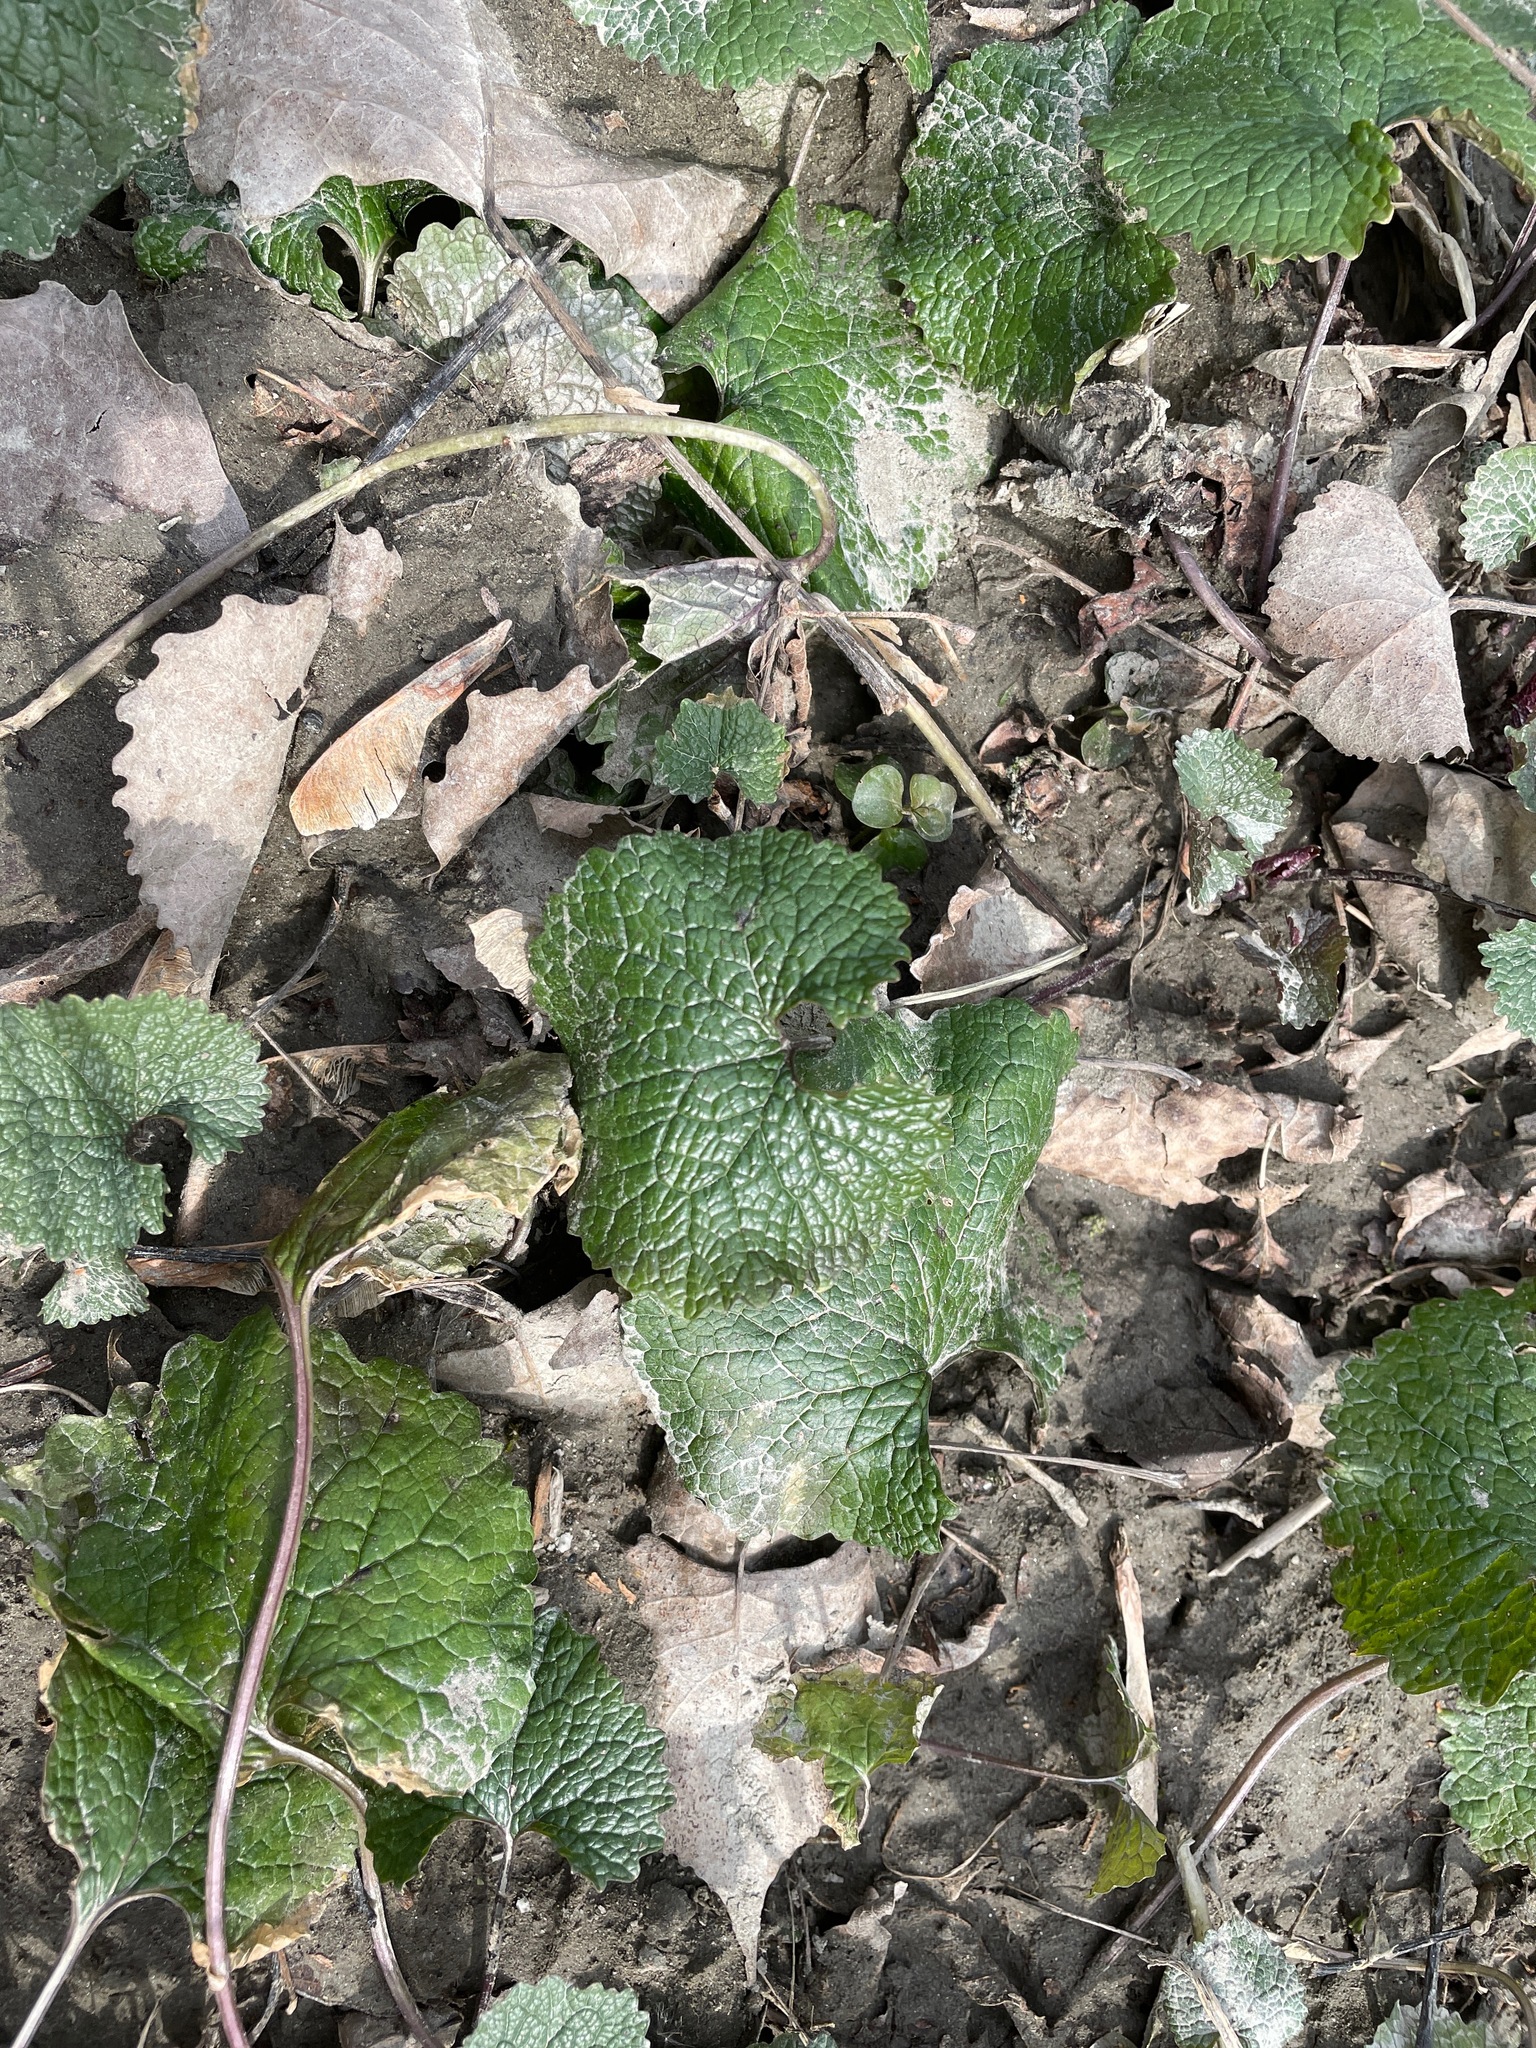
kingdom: Plantae
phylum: Tracheophyta
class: Magnoliopsida
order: Brassicales
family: Brassicaceae
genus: Alliaria
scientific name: Alliaria petiolata
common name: Garlic mustard
